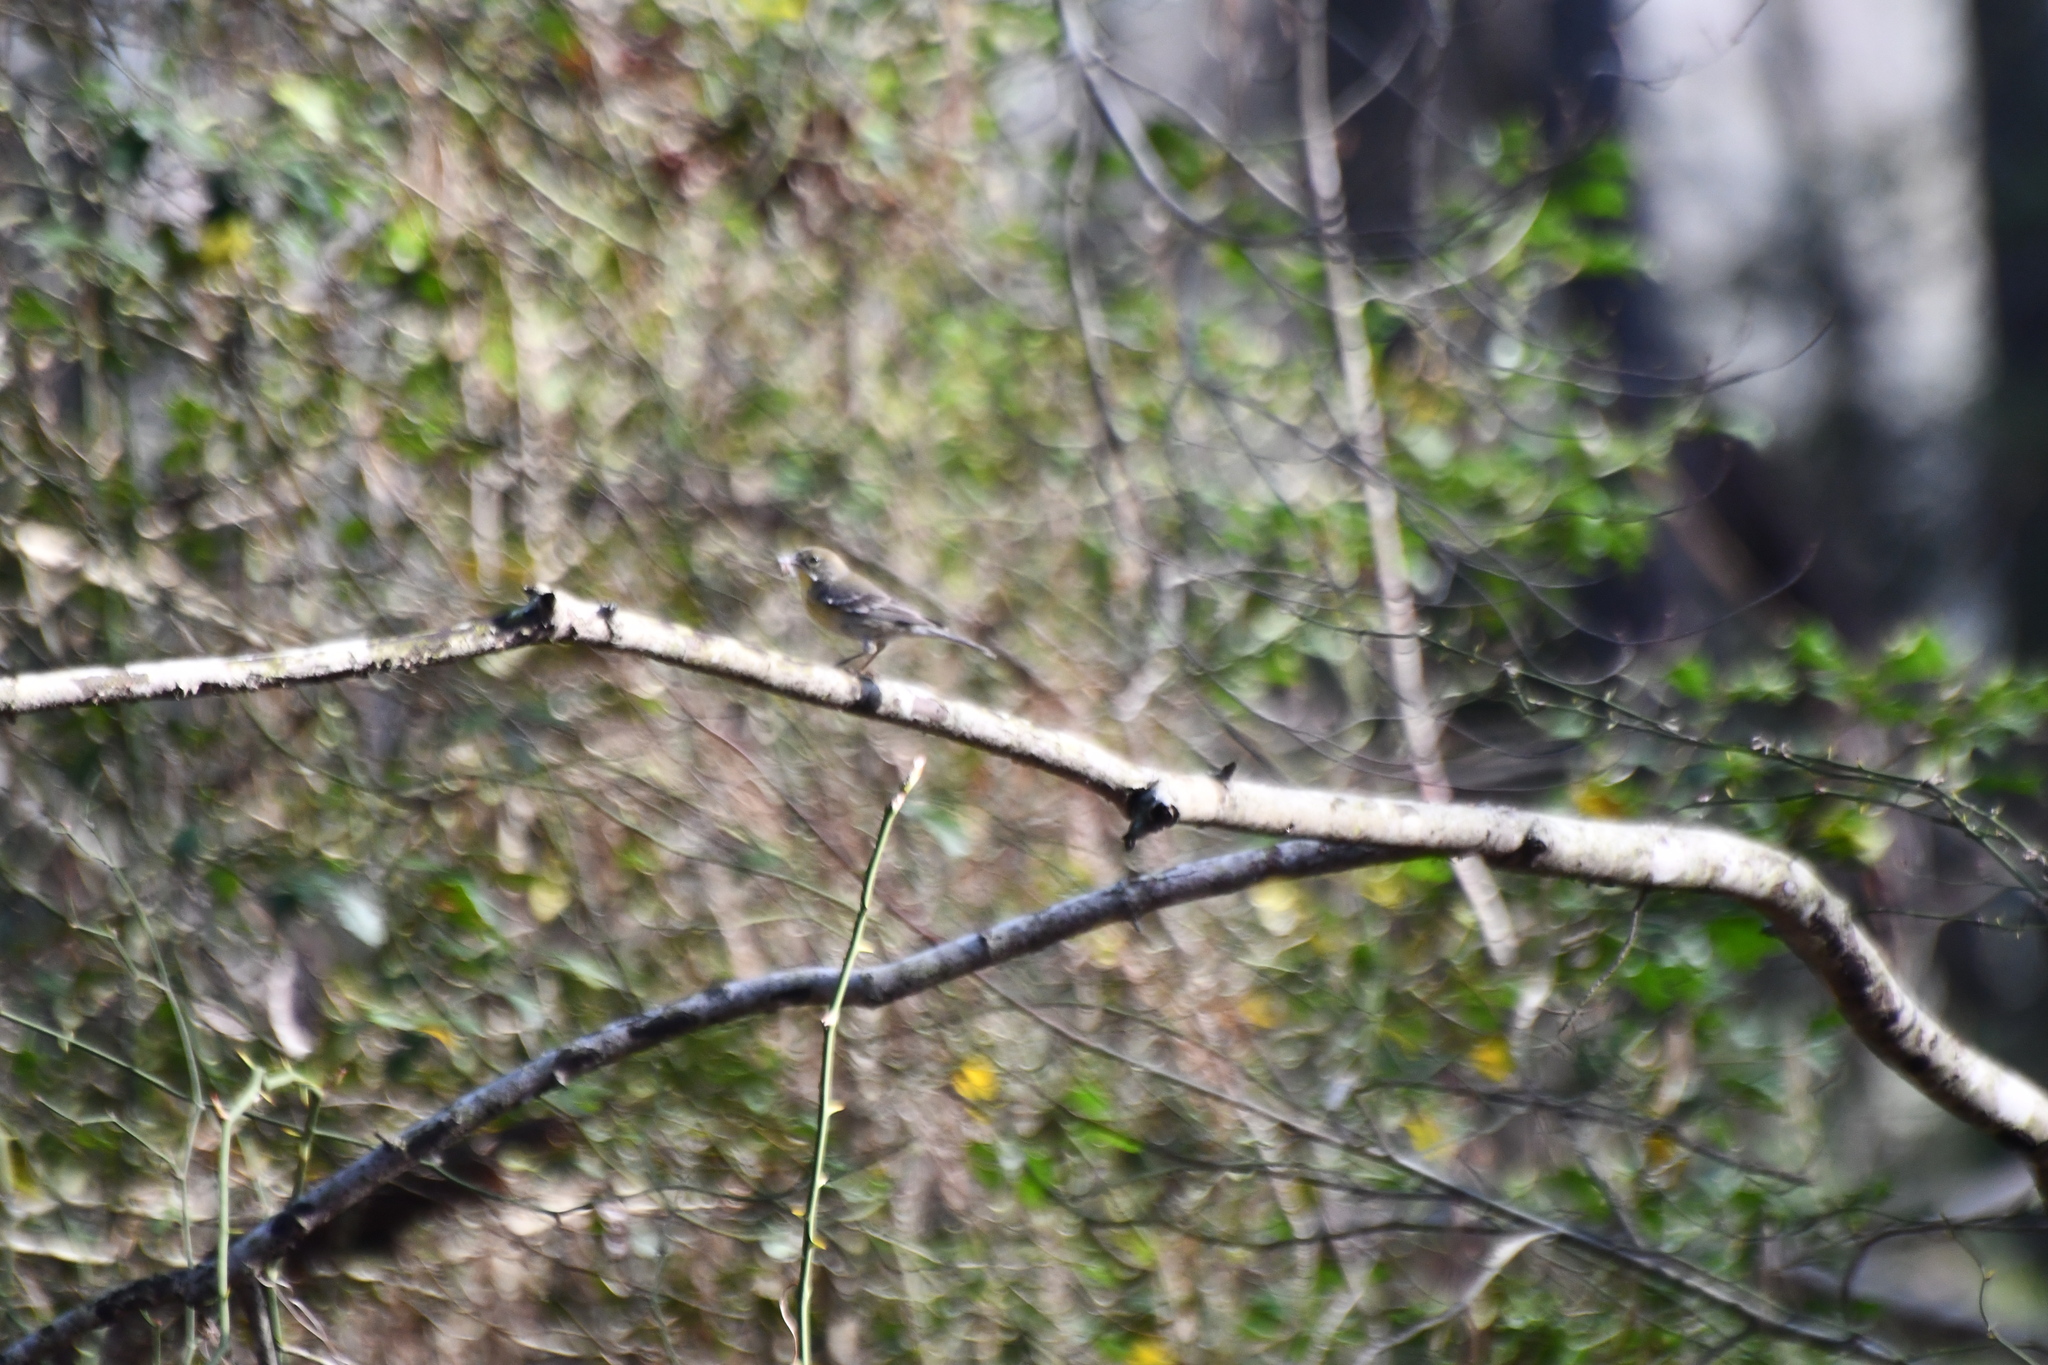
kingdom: Animalia
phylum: Chordata
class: Aves
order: Passeriformes
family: Parulidae
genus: Setophaga
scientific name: Setophaga pinus
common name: Pine warbler
